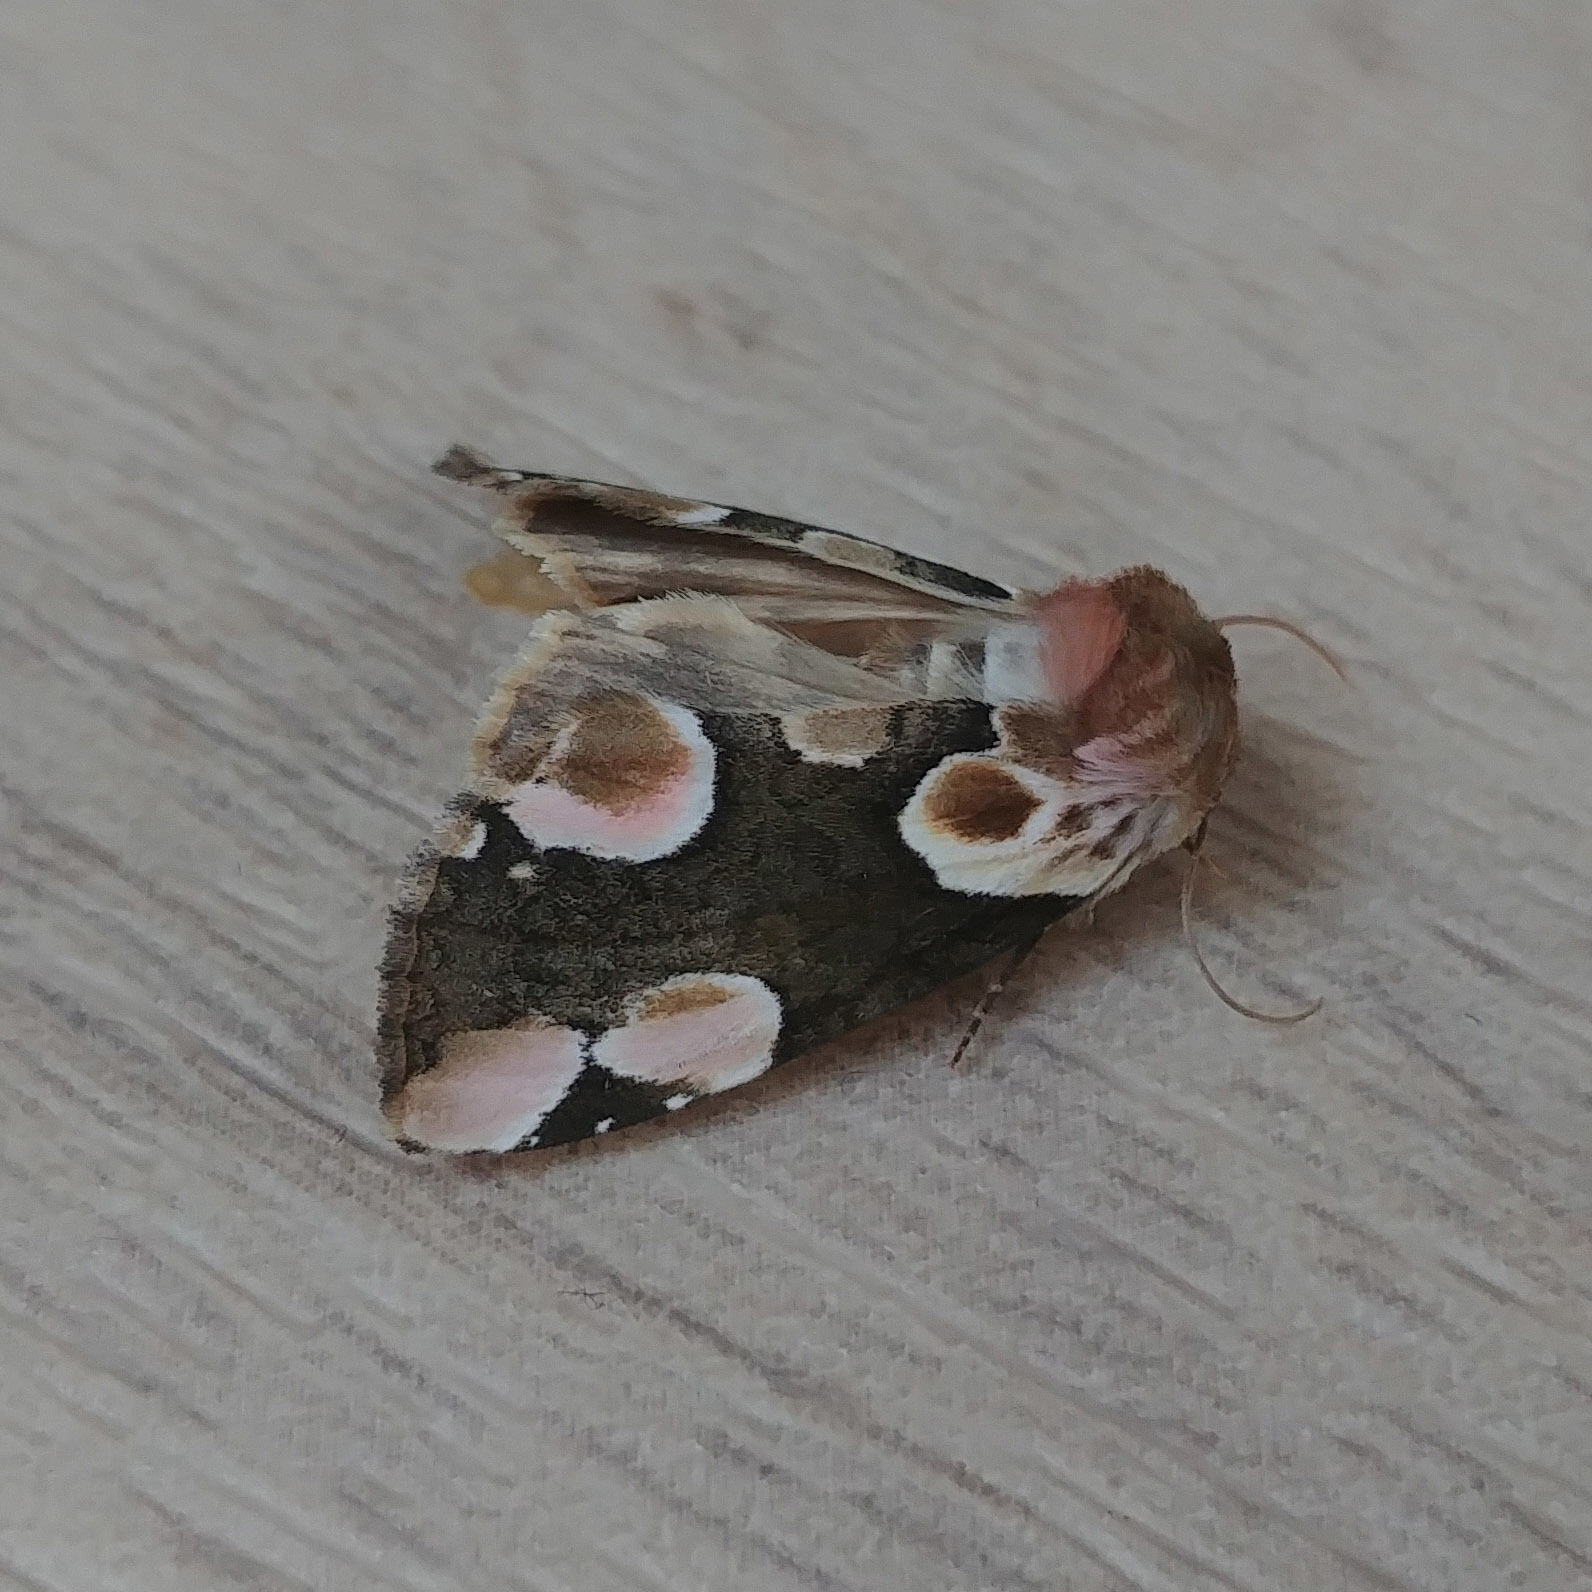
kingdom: Animalia
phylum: Arthropoda
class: Insecta
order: Lepidoptera
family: Drepanidae
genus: Thyatira
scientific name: Thyatira batis
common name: Peach blossom
